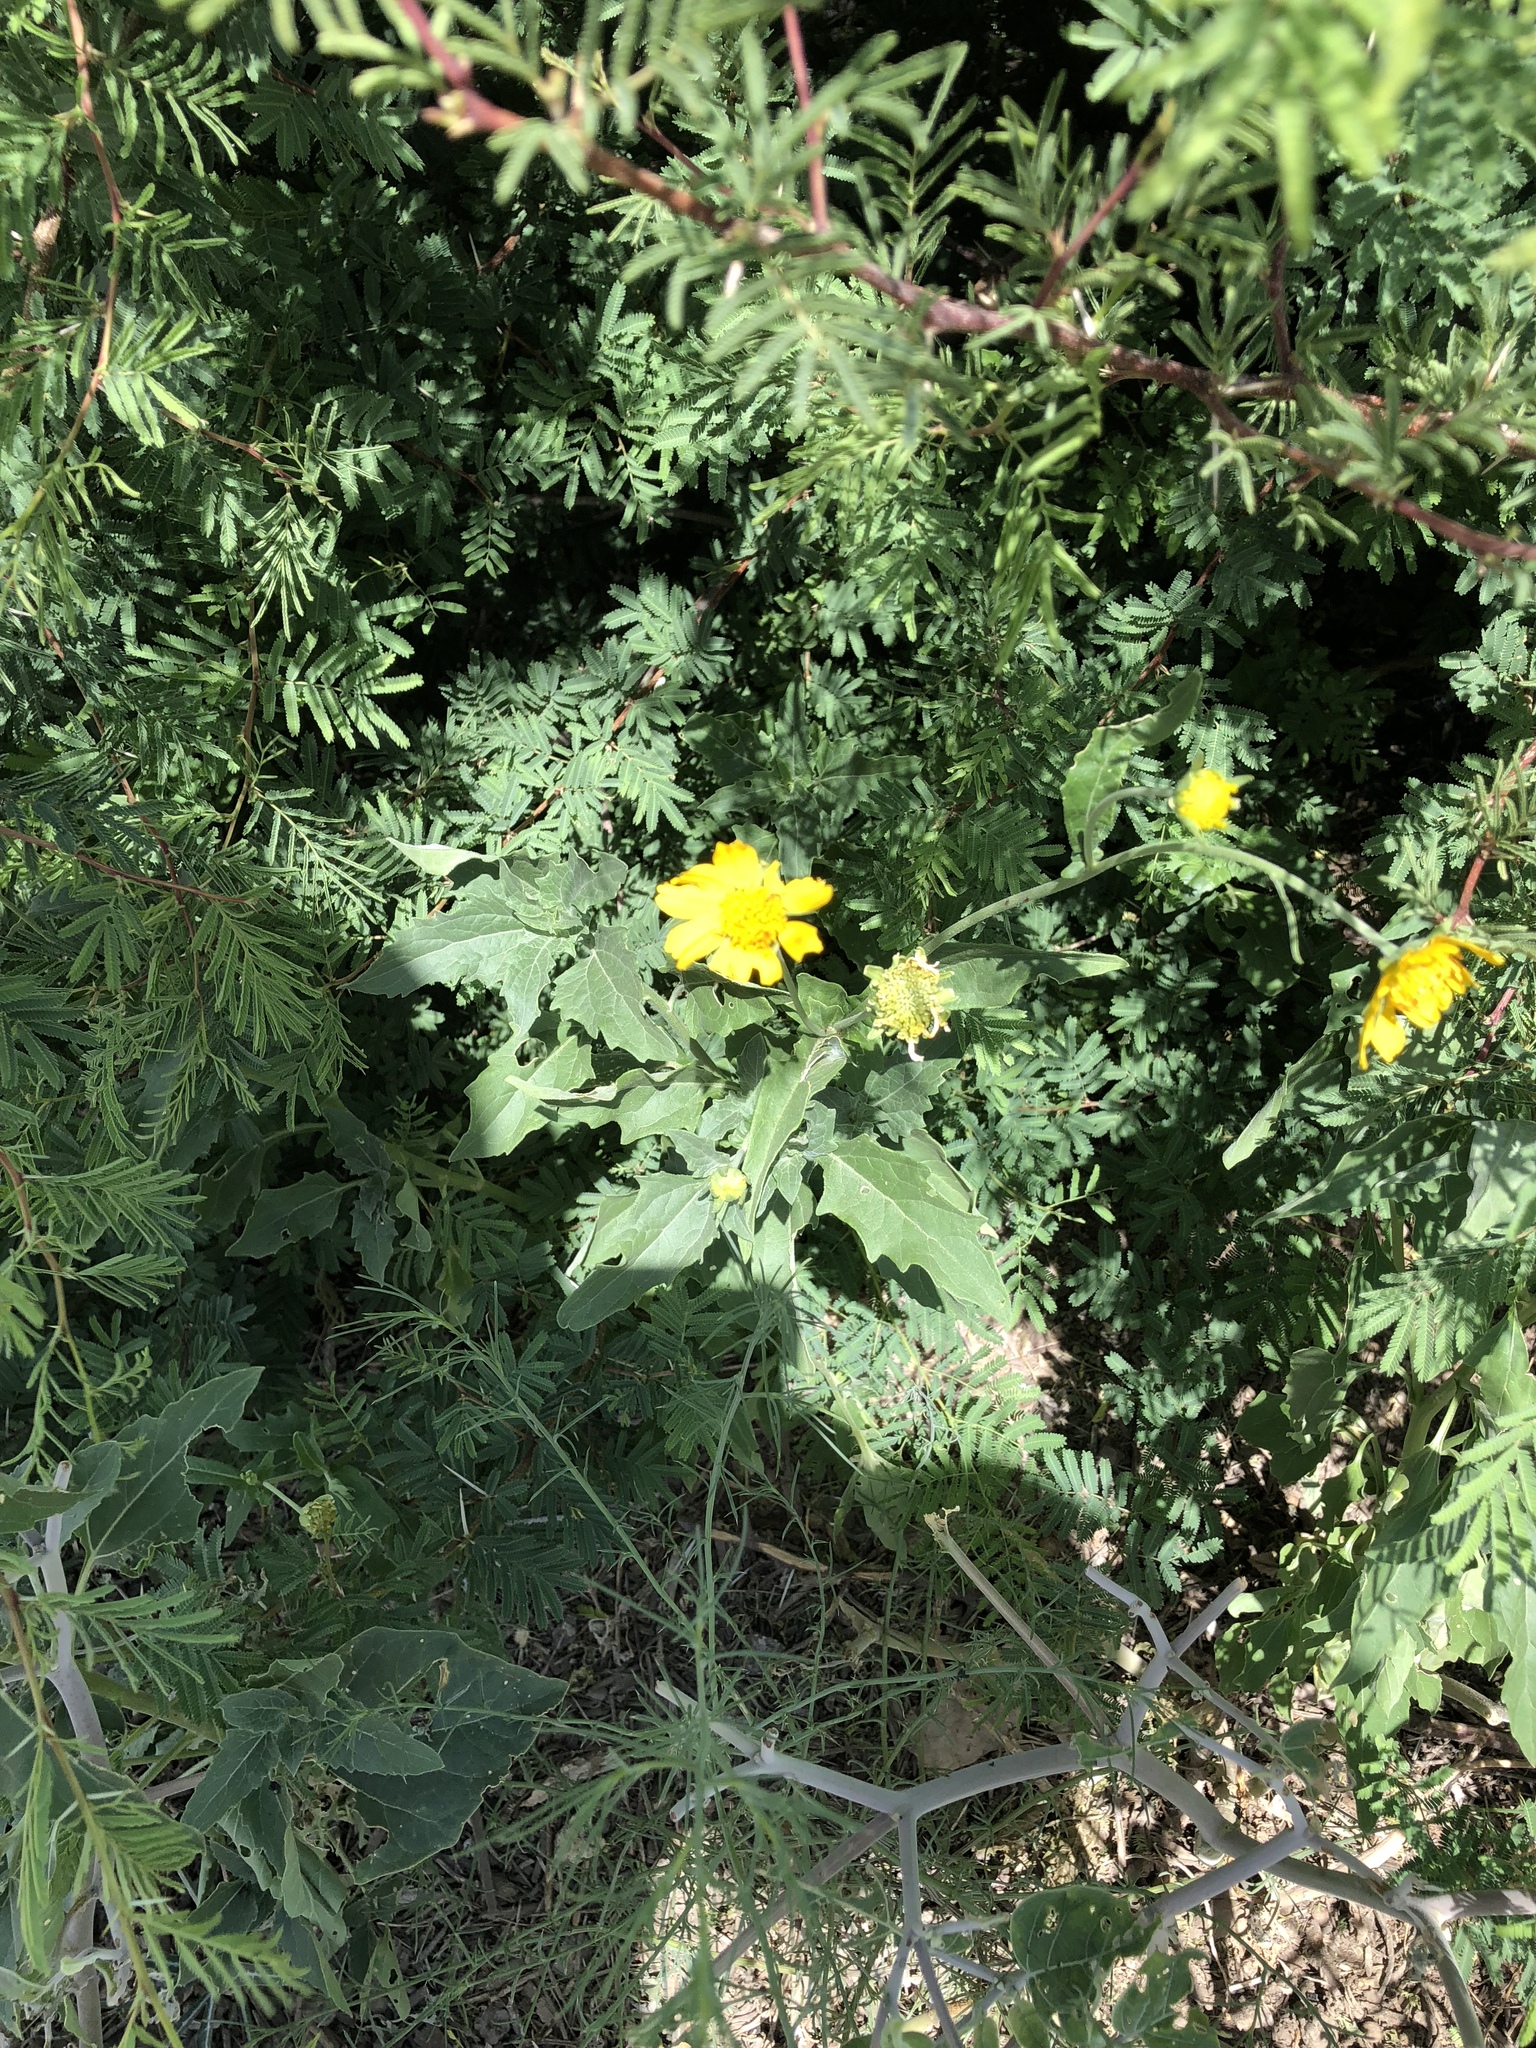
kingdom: Plantae
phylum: Tracheophyta
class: Magnoliopsida
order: Asterales
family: Asteraceae
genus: Verbesina
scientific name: Verbesina encelioides
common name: Golden crownbeard
